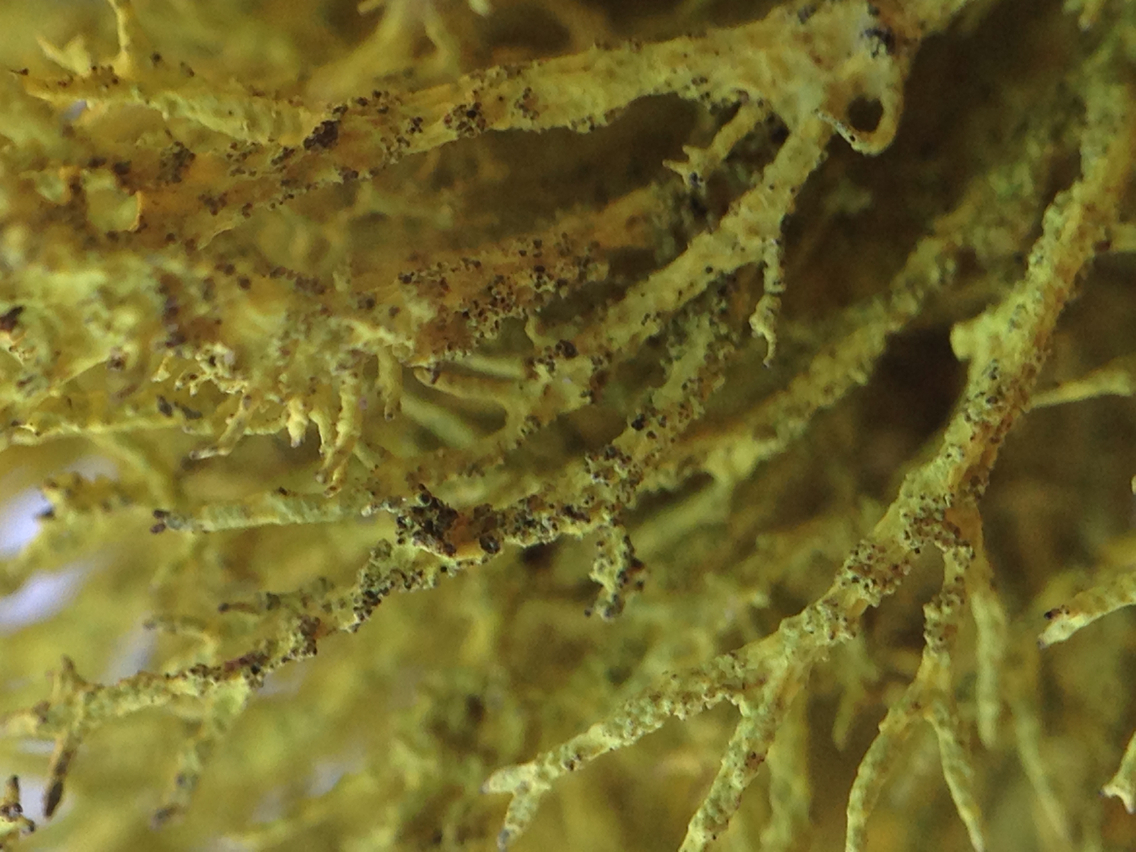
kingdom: Fungi
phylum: Ascomycota
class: Lecanoromycetes
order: Lecanorales
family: Parmeliaceae
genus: Letharia
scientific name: Letharia columbiana
